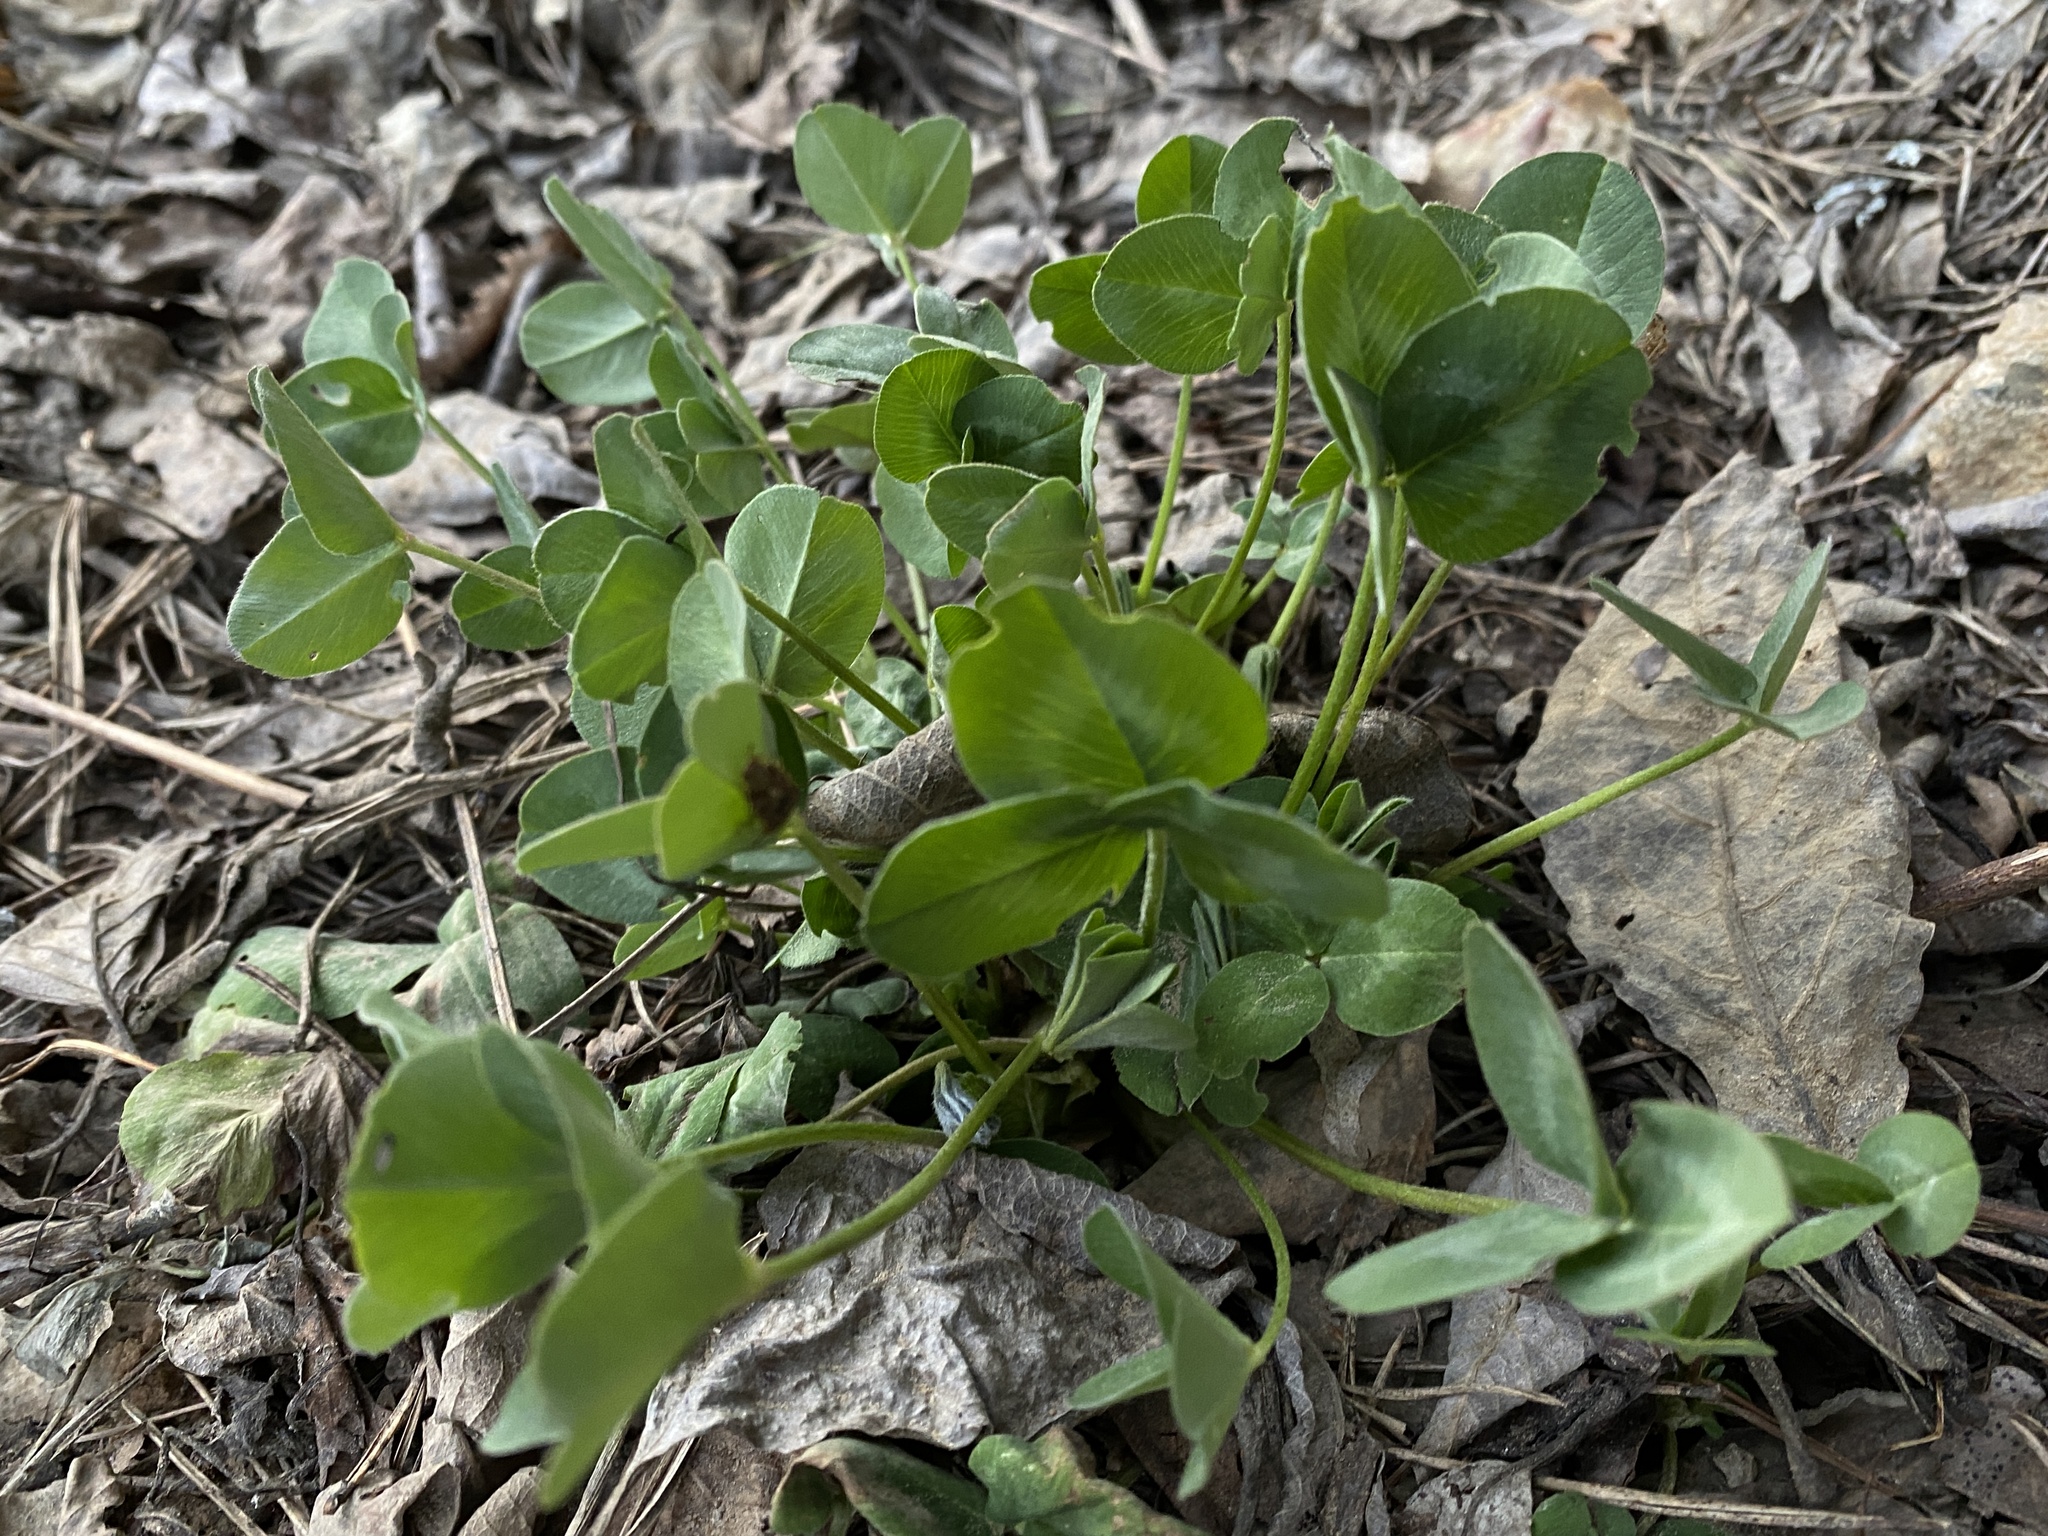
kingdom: Plantae
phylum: Tracheophyta
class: Magnoliopsida
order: Fabales
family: Fabaceae
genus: Trifolium
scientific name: Trifolium pratense
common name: Red clover
